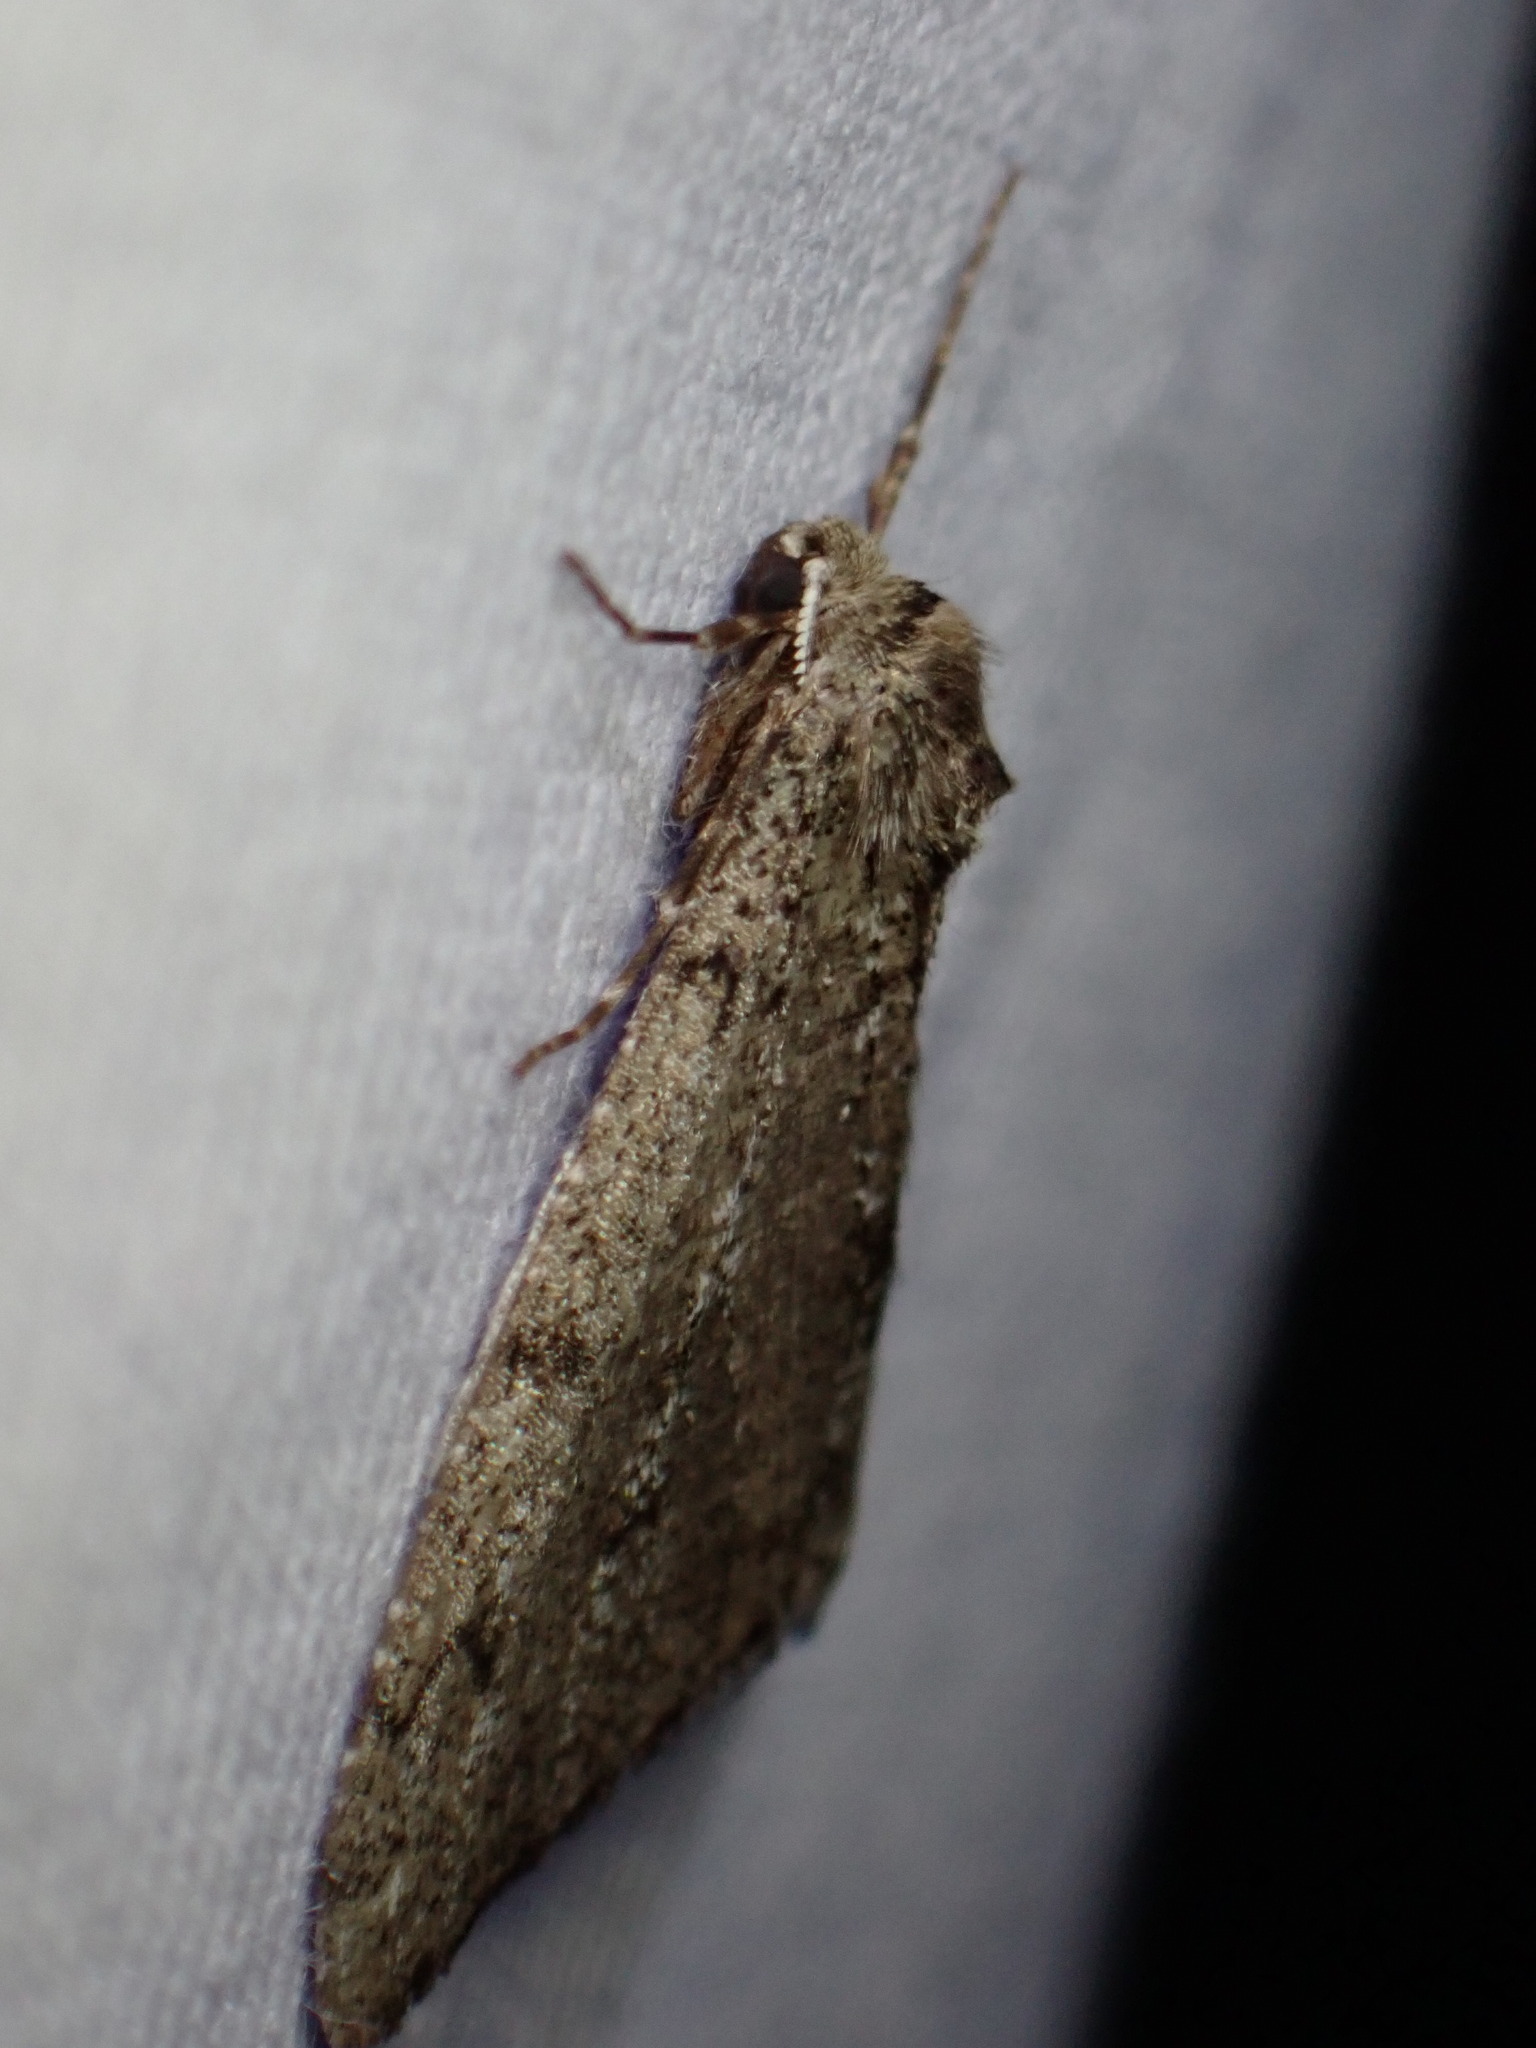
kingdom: Animalia
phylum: Arthropoda
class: Insecta
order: Lepidoptera
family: Geometridae
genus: Phigalia
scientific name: Phigalia strigataria
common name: Small phigalia
